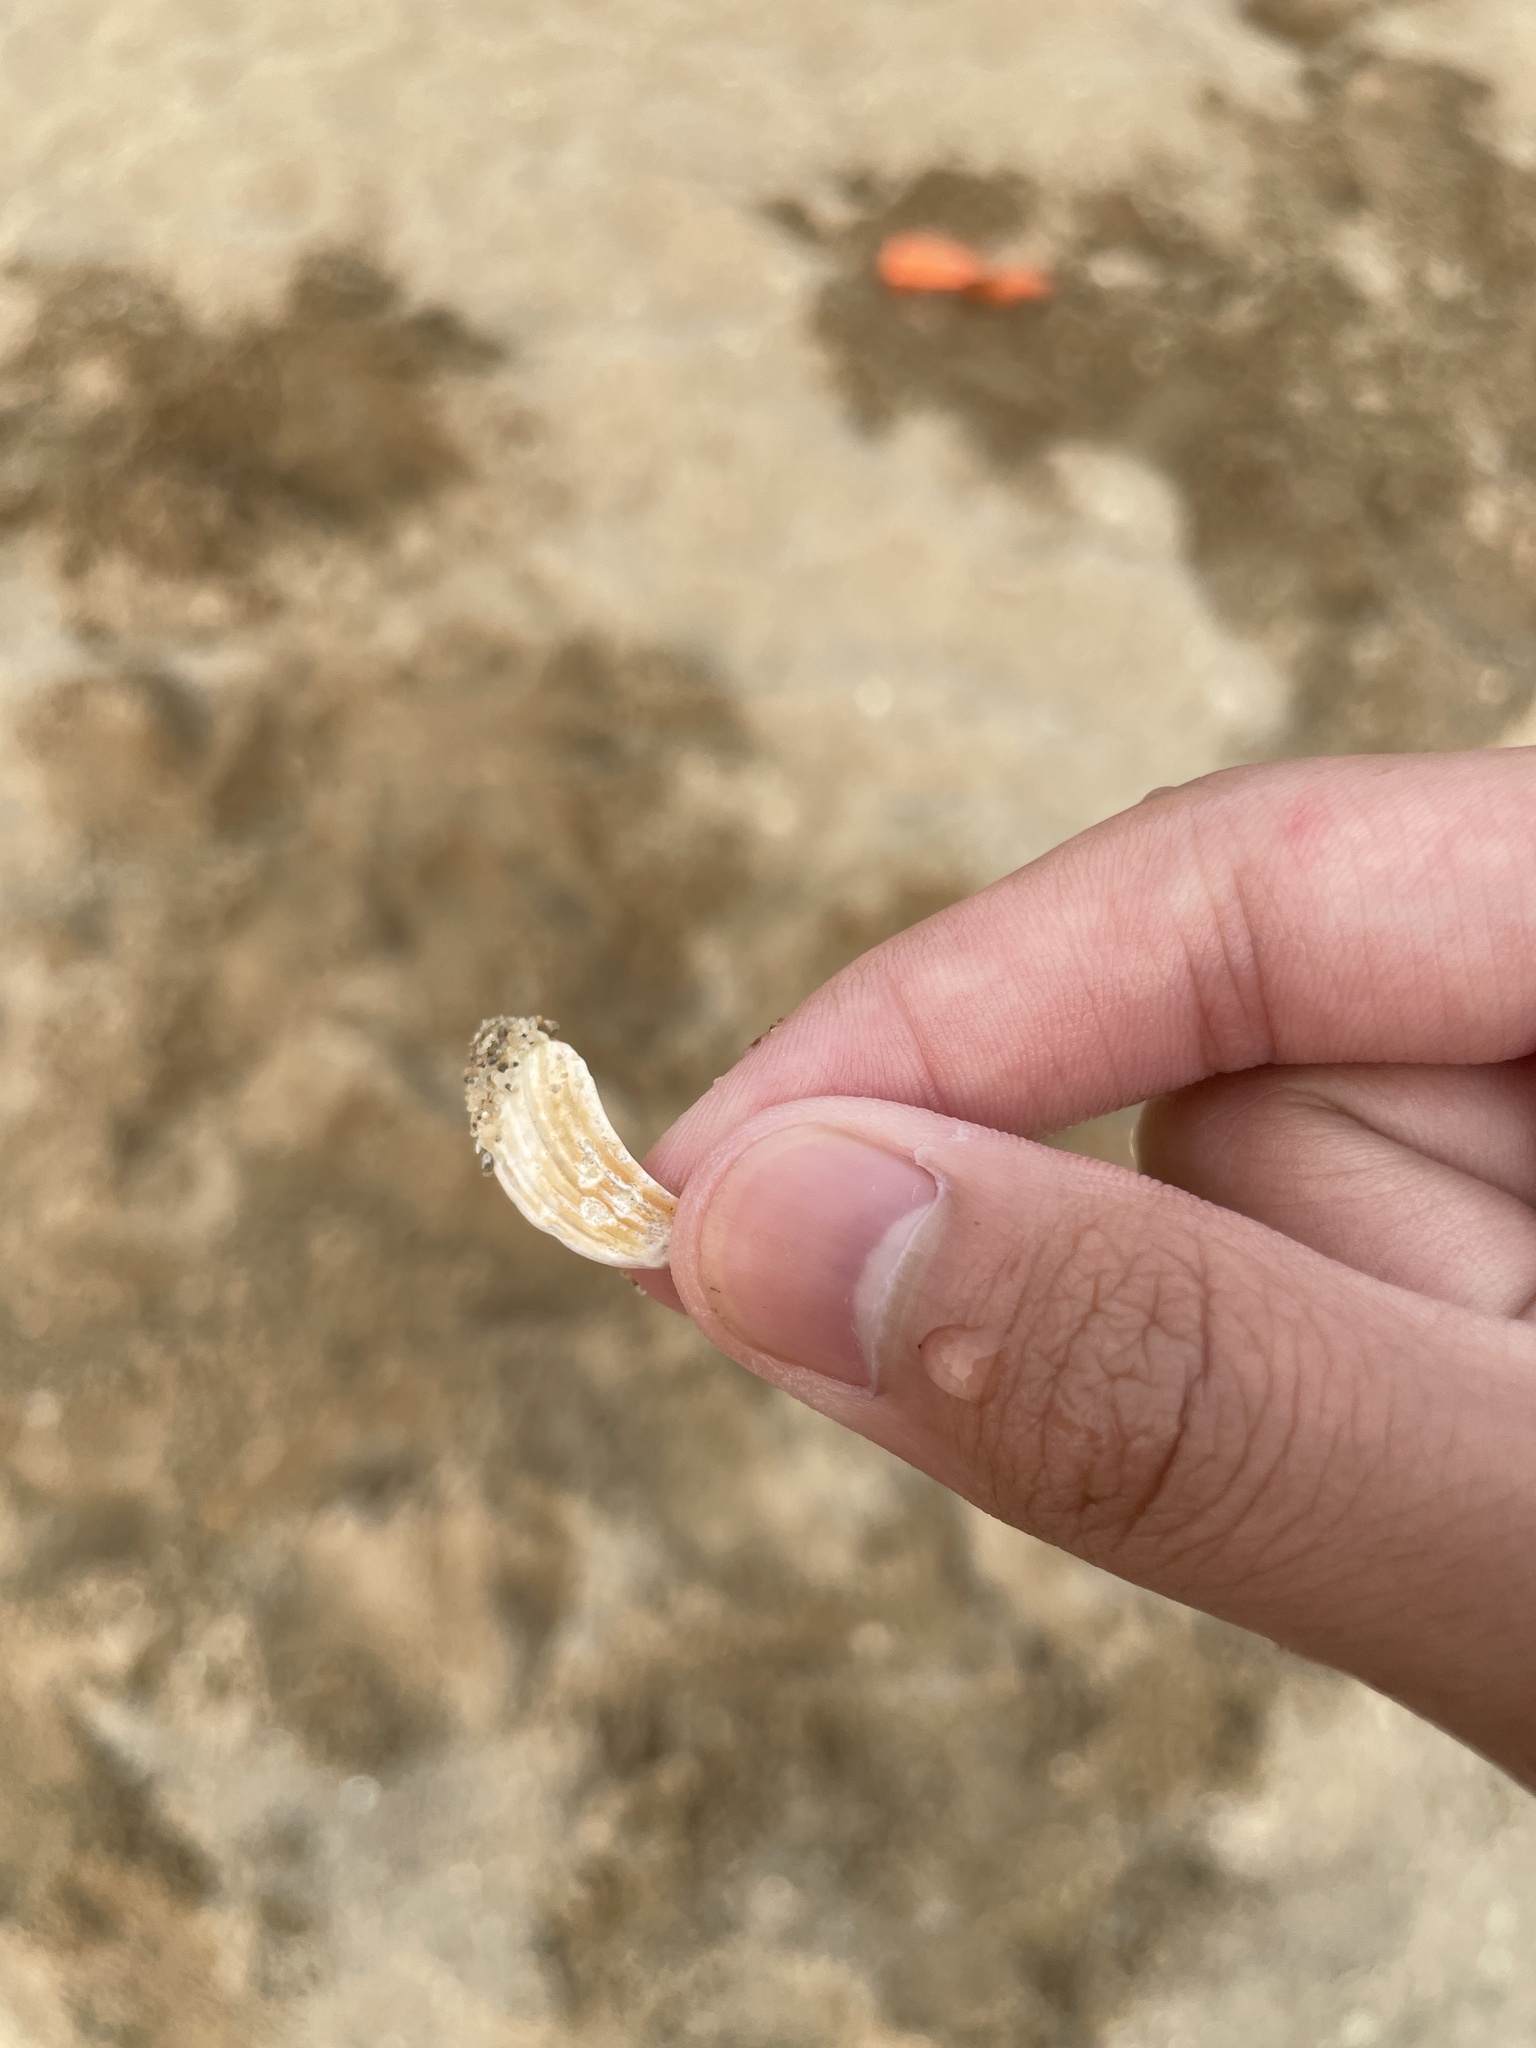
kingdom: Animalia
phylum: Mollusca
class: Bivalvia
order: Venerida
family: Cyrenidae
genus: Corbicula
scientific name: Corbicula fluminea
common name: Asian clam
